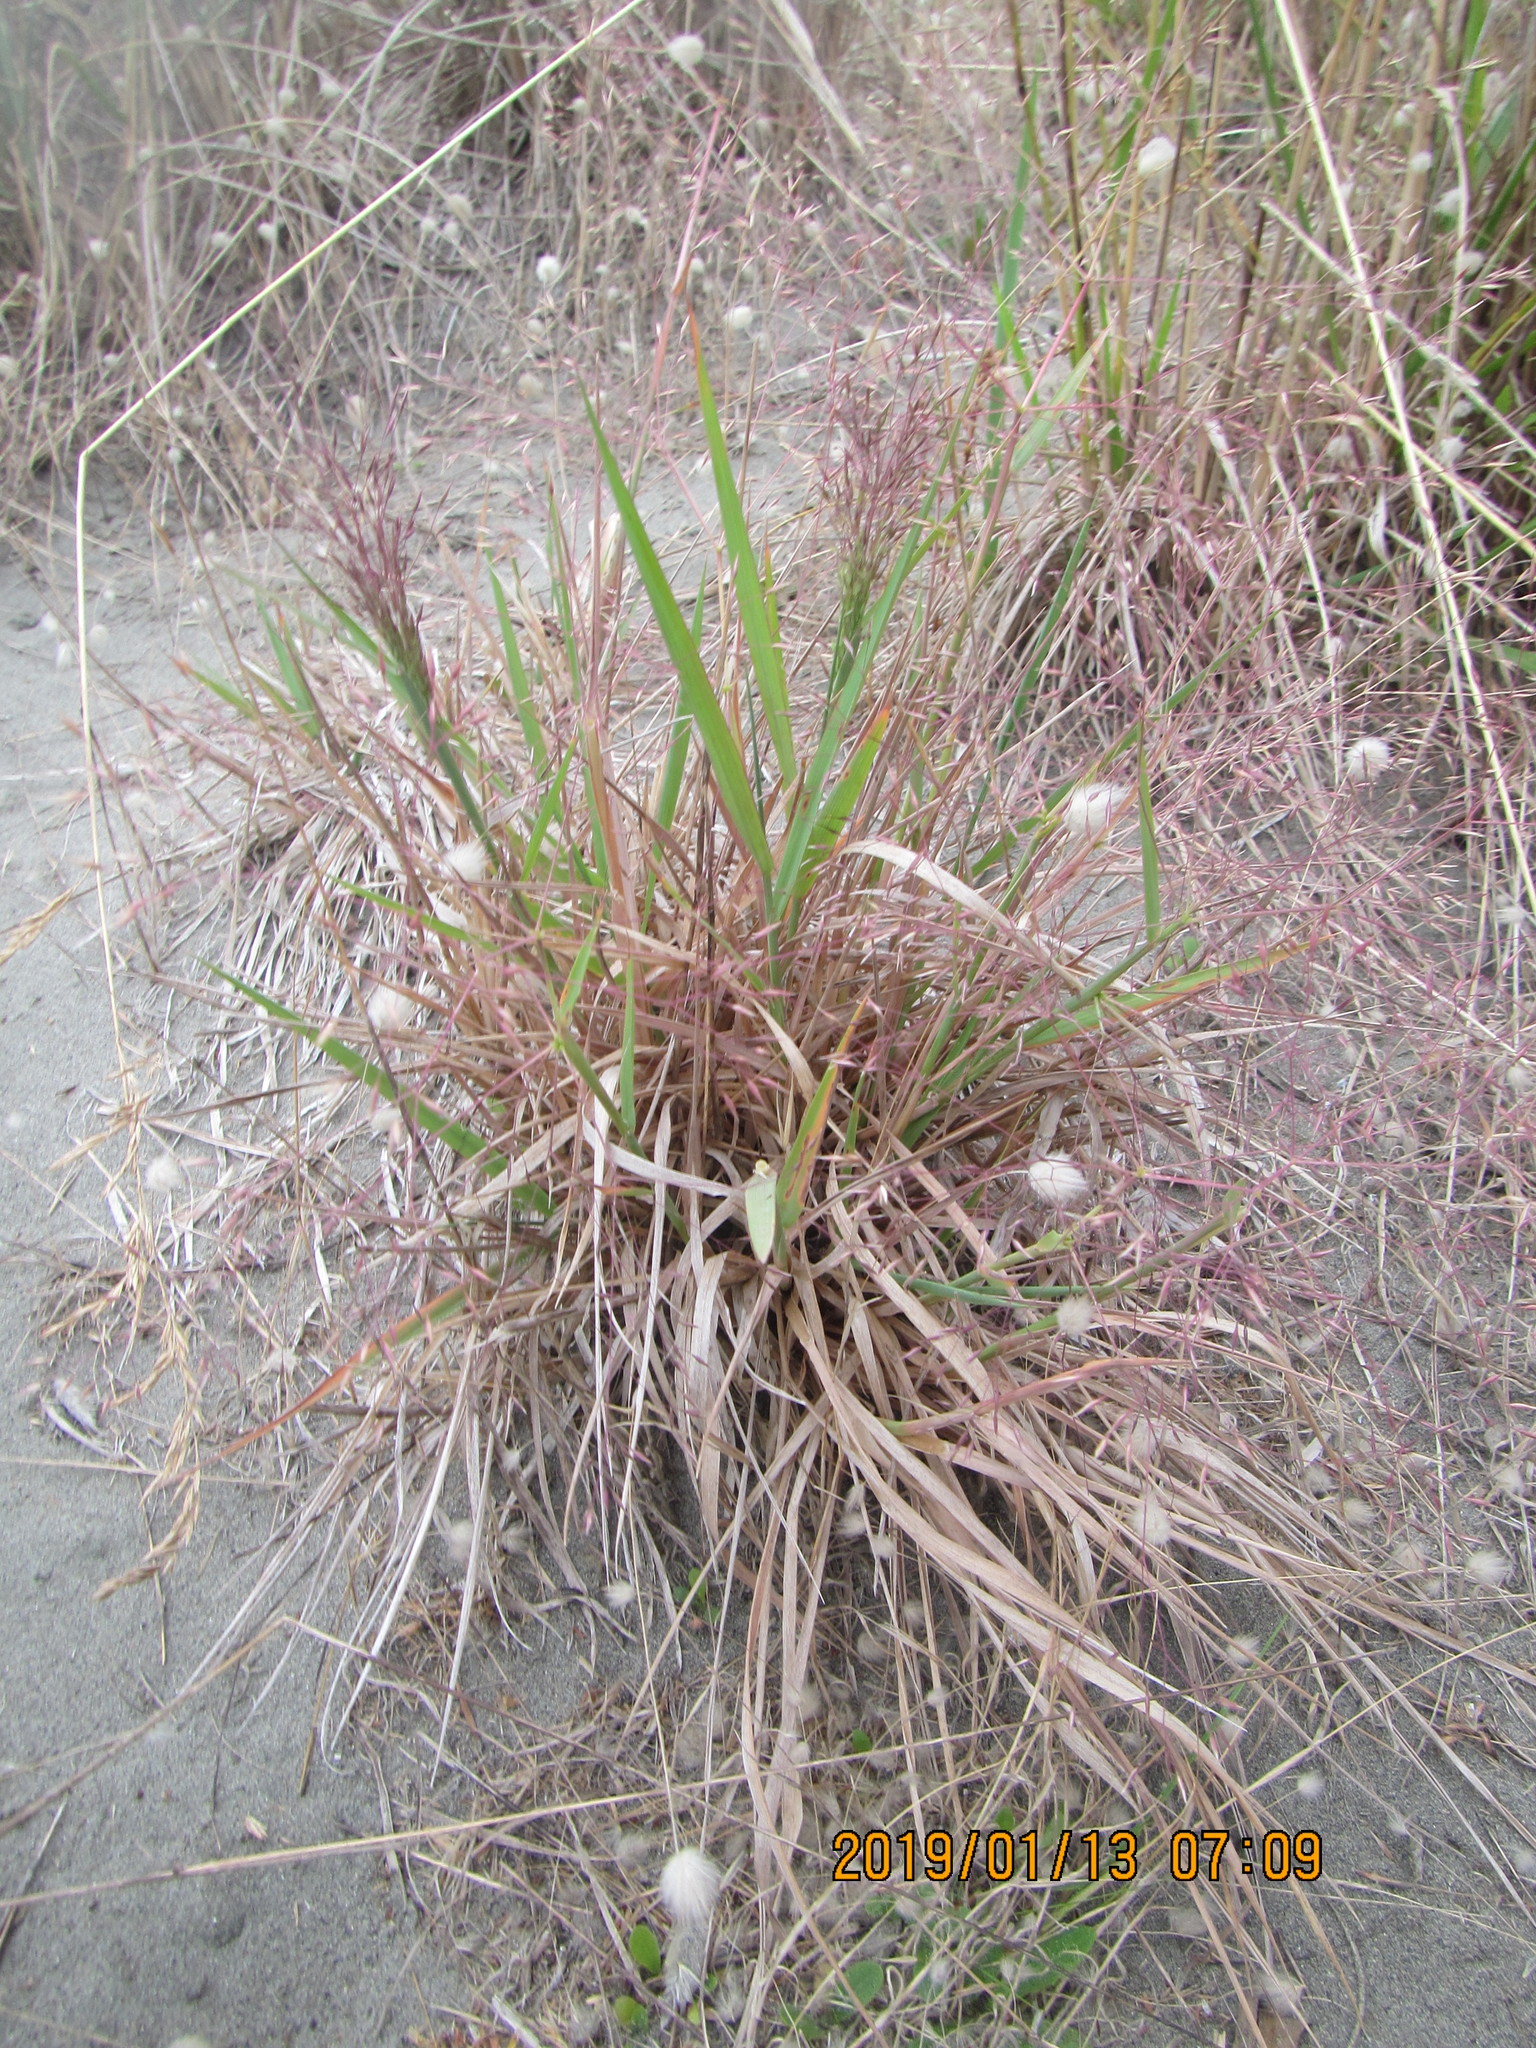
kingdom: Plantae
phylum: Tracheophyta
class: Liliopsida
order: Poales
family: Poaceae
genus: Lachnagrostis
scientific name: Lachnagrostis billardierei
